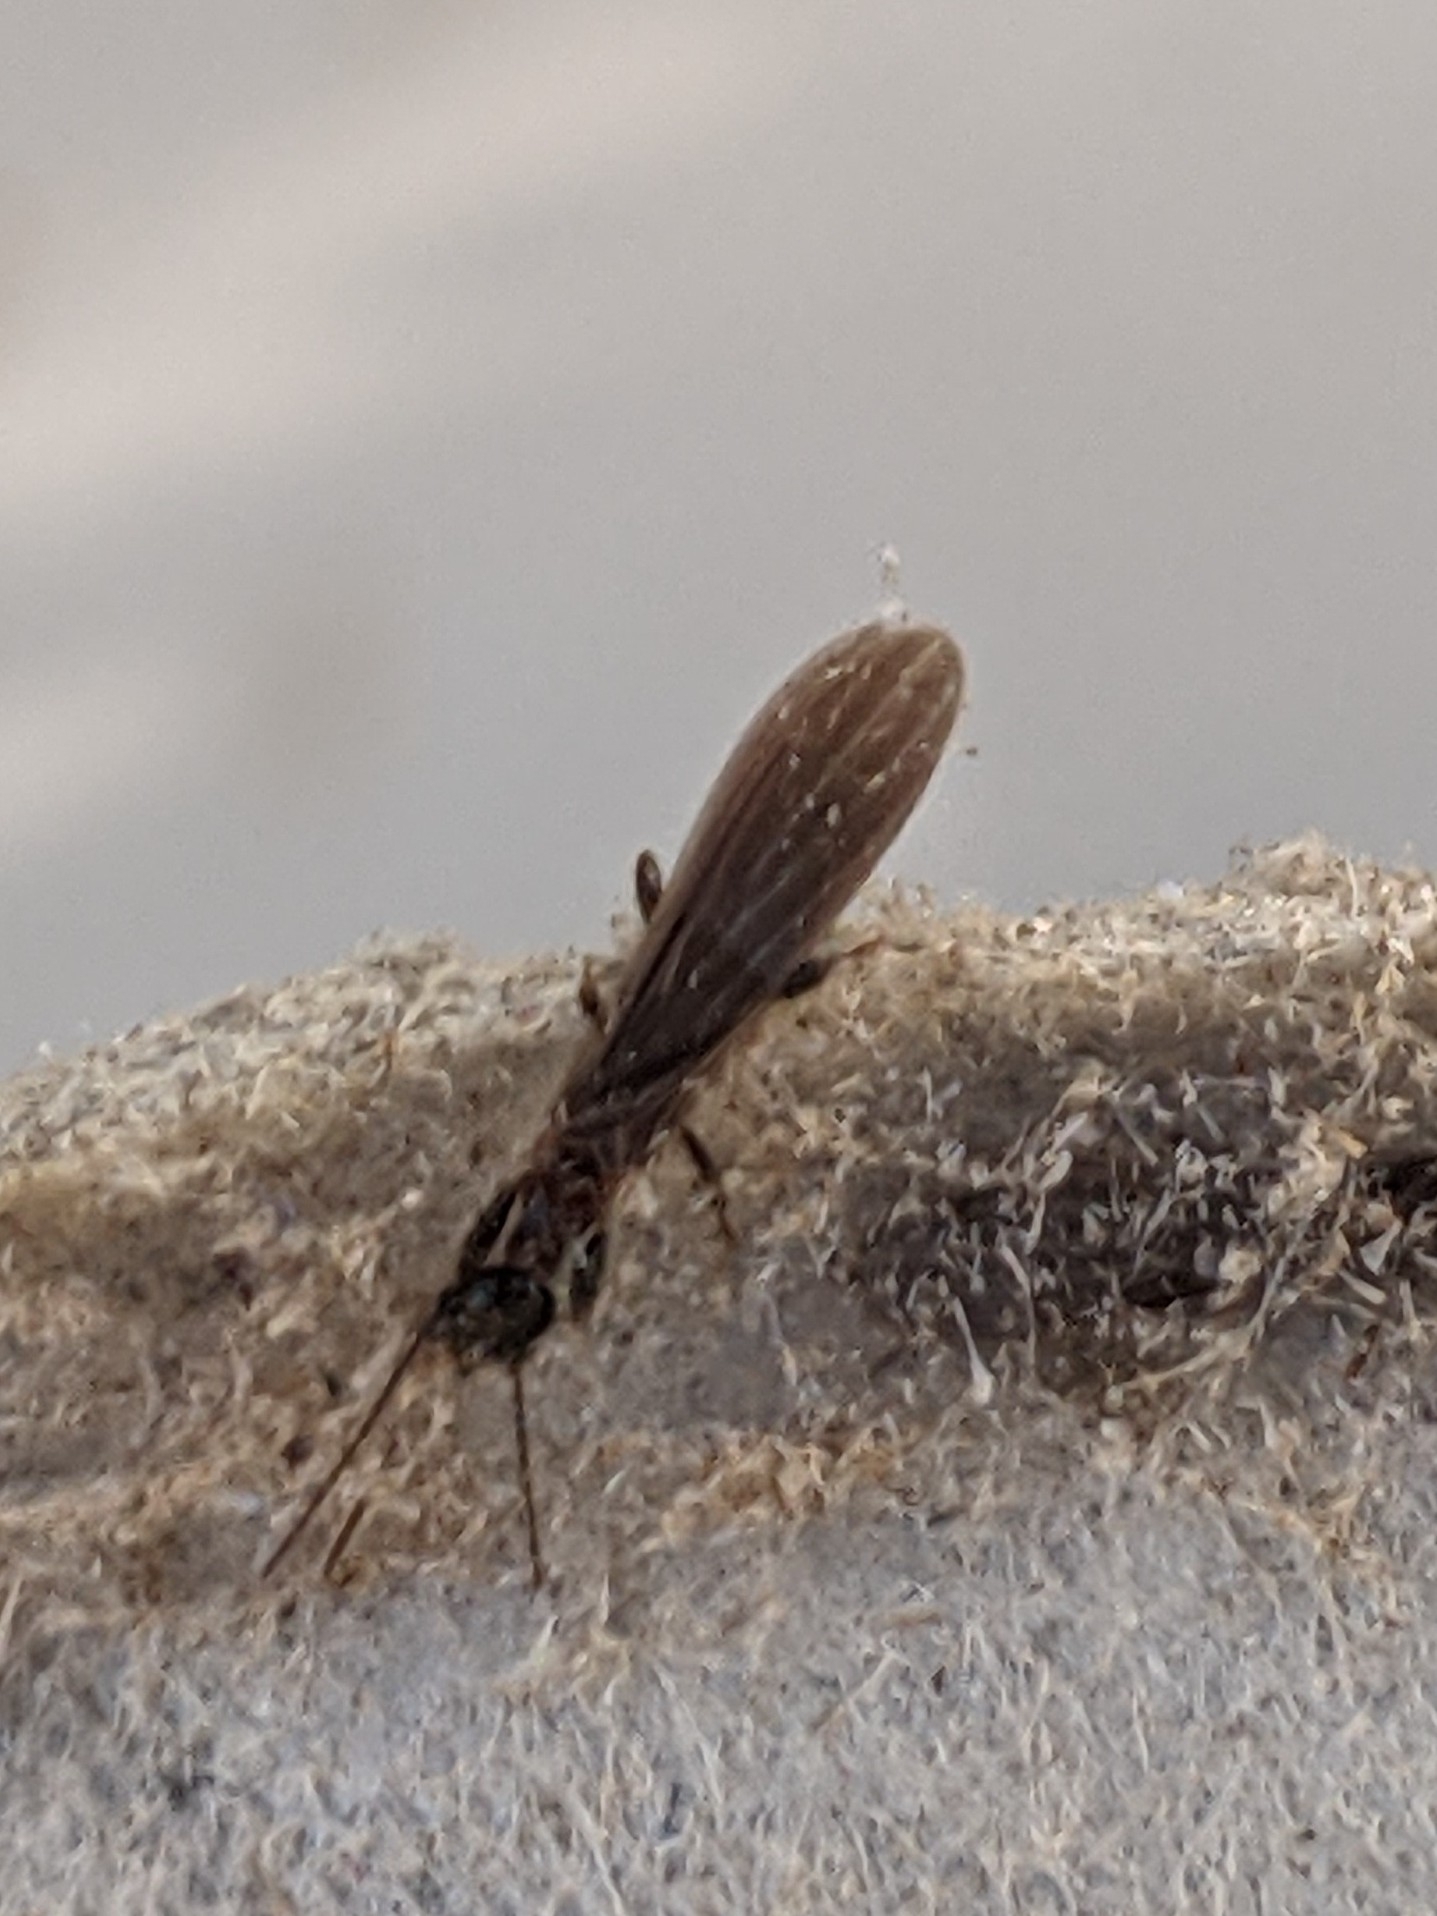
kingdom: Animalia
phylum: Arthropoda
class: Insecta
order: Embioptera
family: Oligotomidae
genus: Oligotoma
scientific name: Oligotoma nigra
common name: Black webspinner
